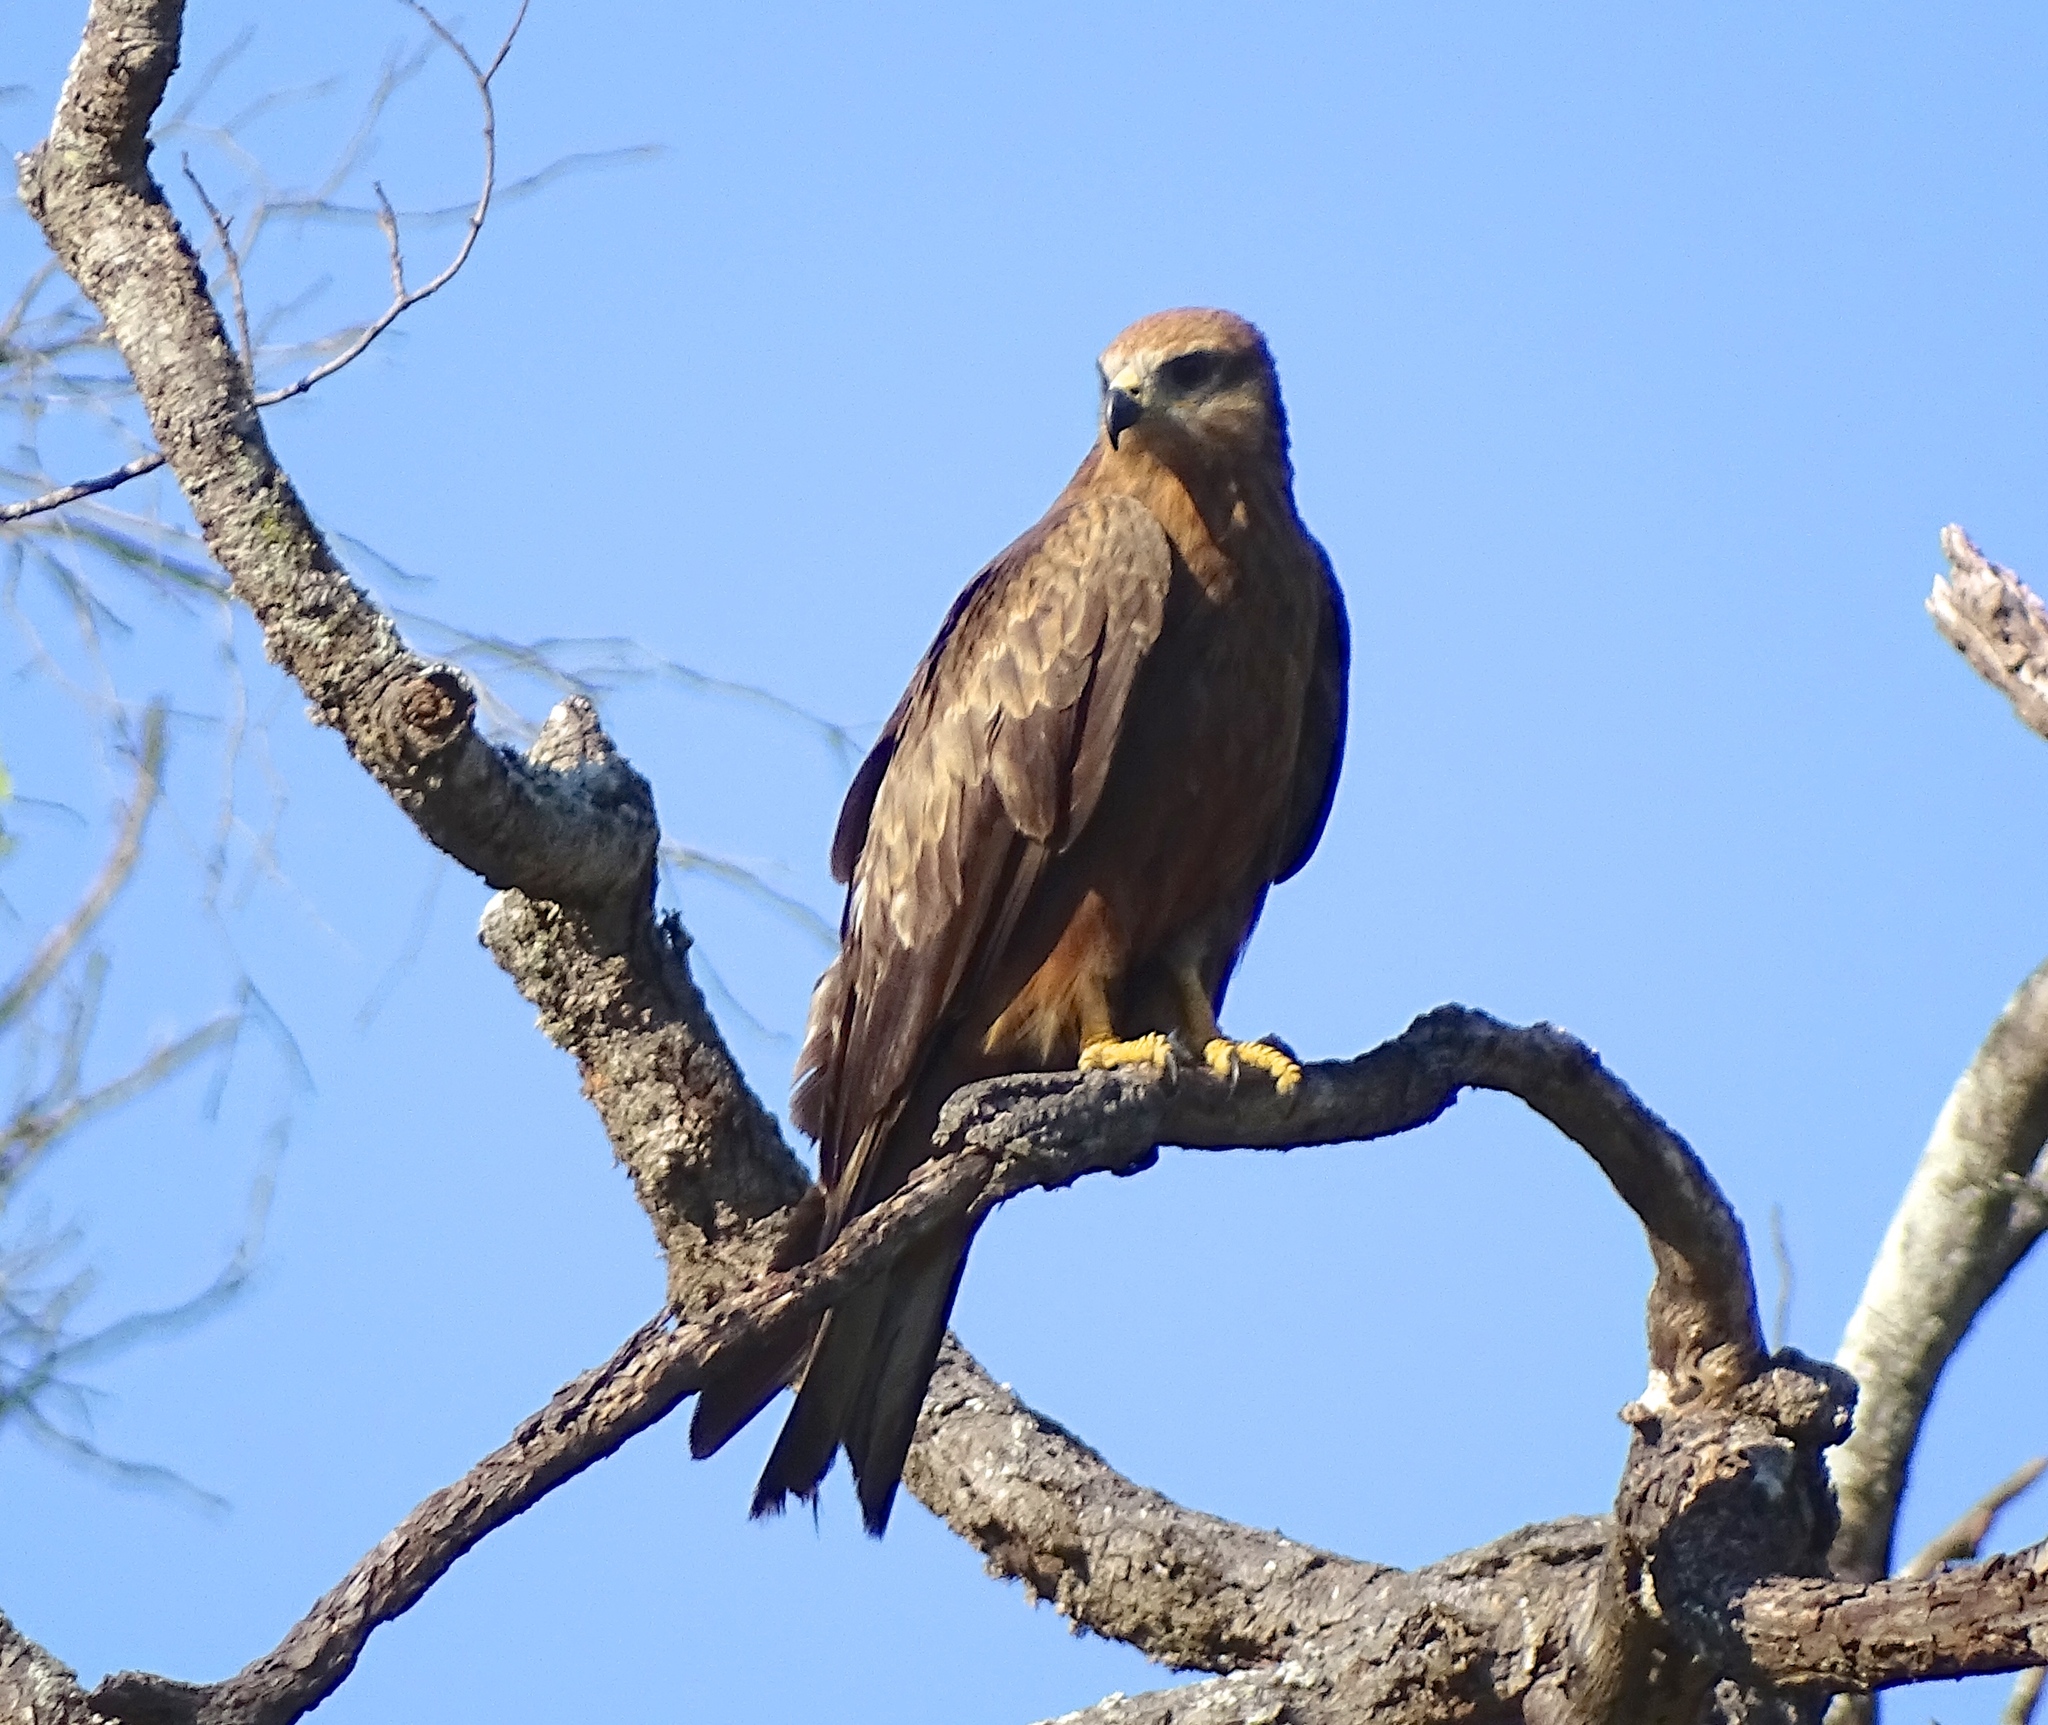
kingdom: Animalia
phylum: Chordata
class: Aves
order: Accipitriformes
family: Accipitridae
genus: Milvus
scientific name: Milvus migrans
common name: Black kite
